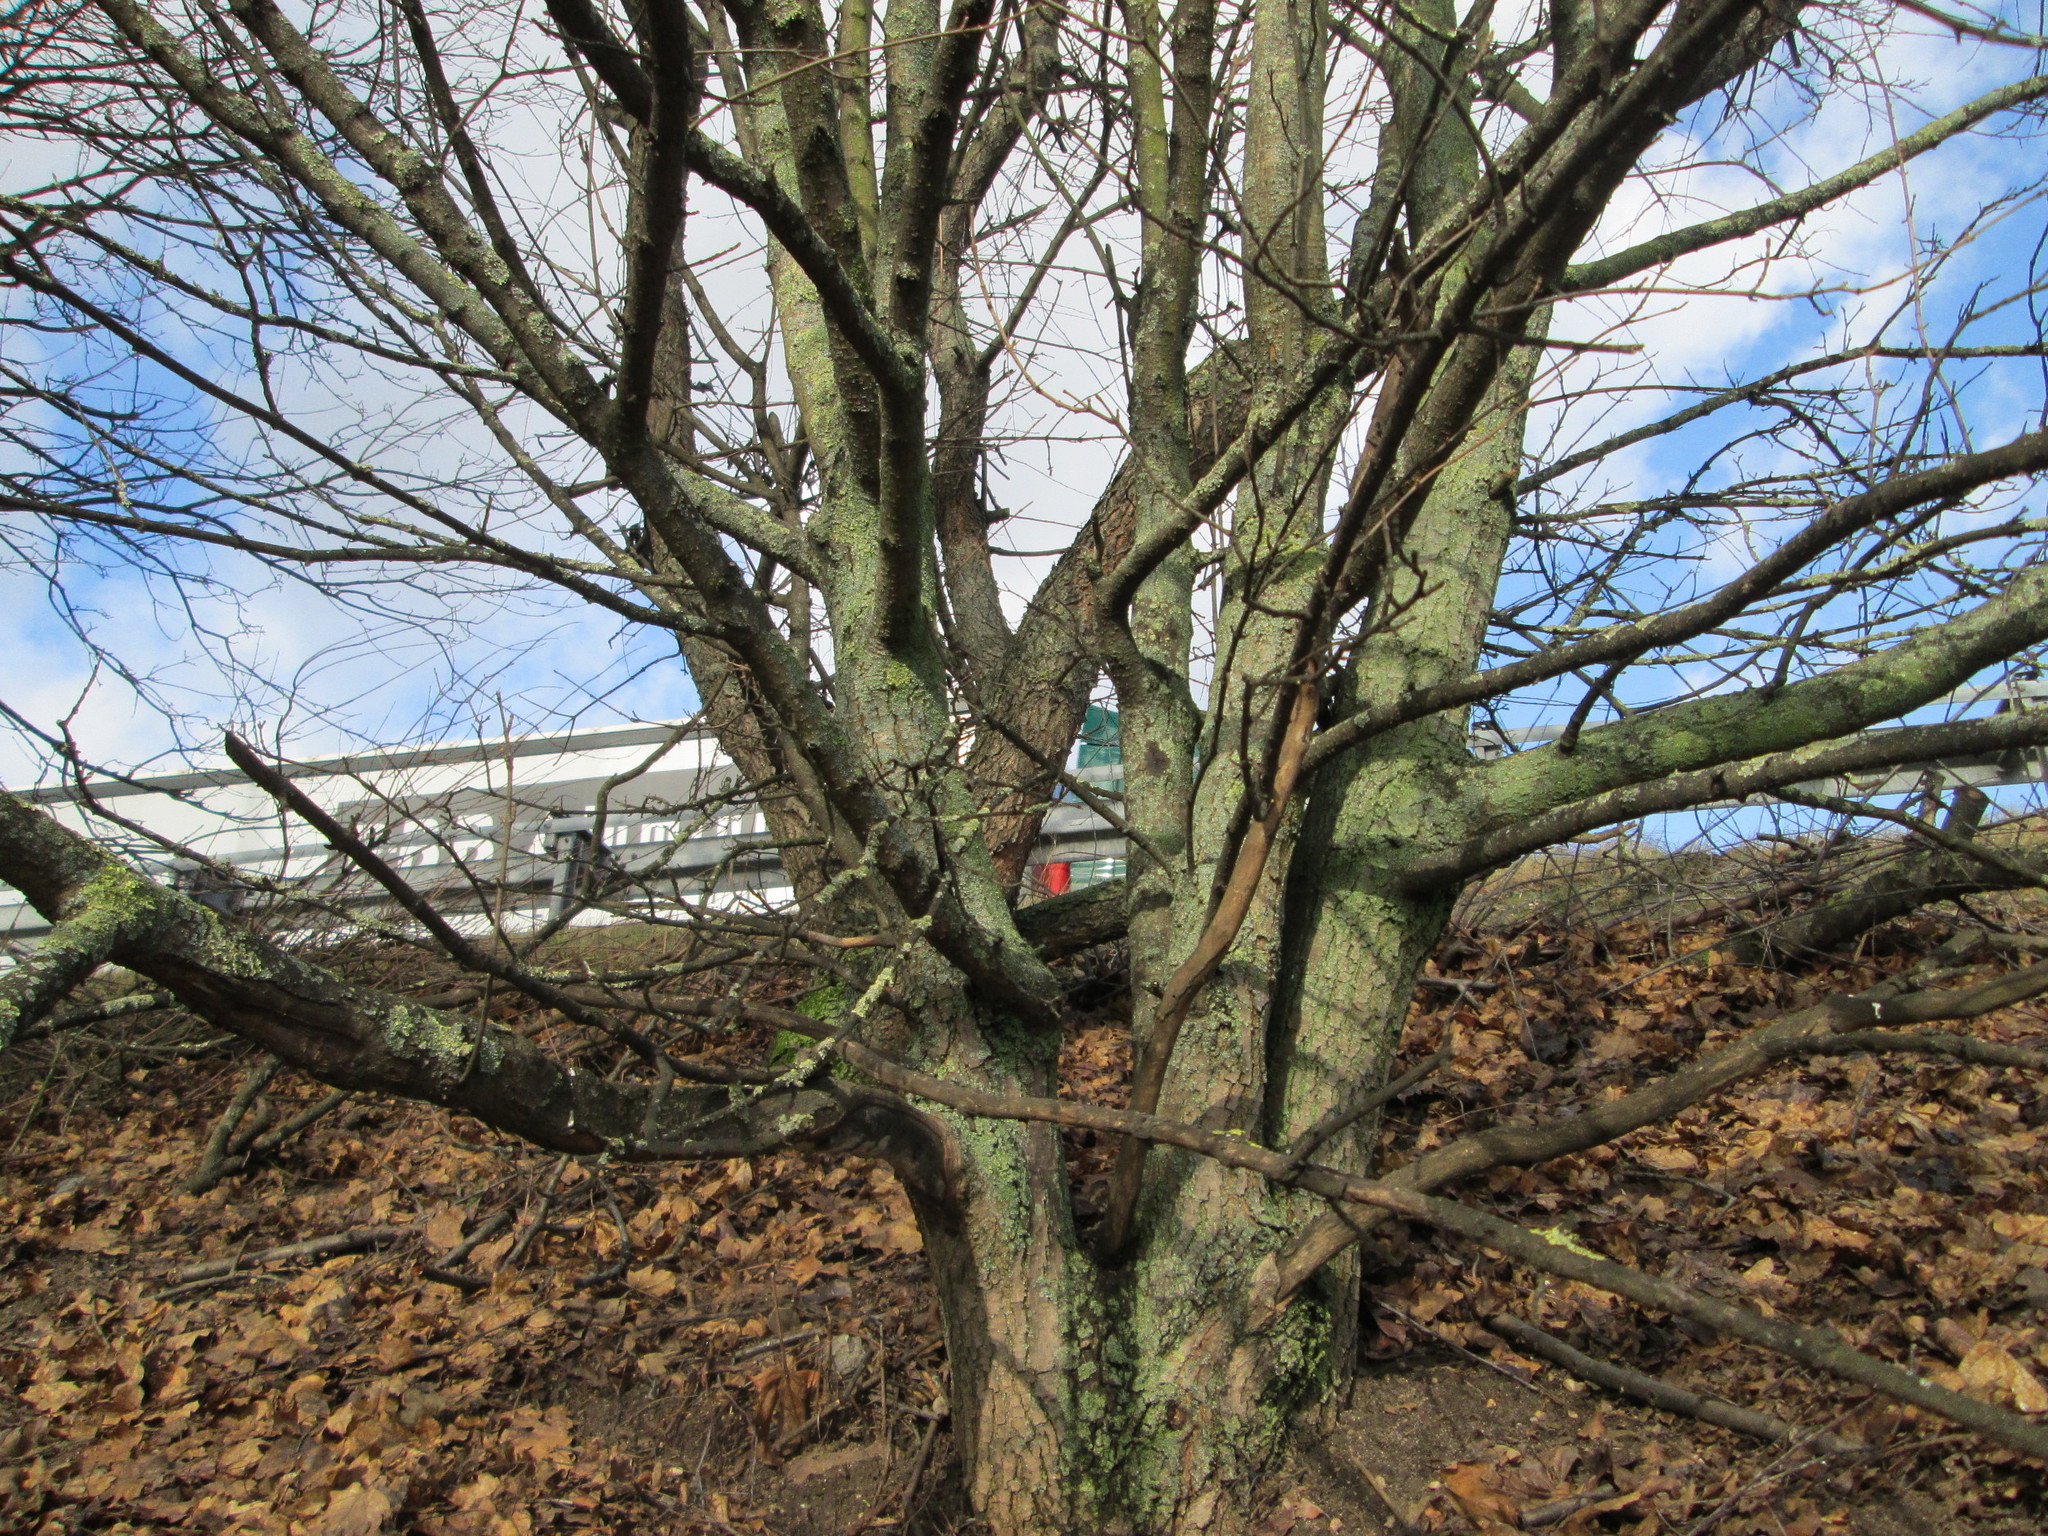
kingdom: Plantae
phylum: Tracheophyta
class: Magnoliopsida
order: Sapindales
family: Sapindaceae
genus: Acer
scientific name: Acer campestre
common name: Field maple
